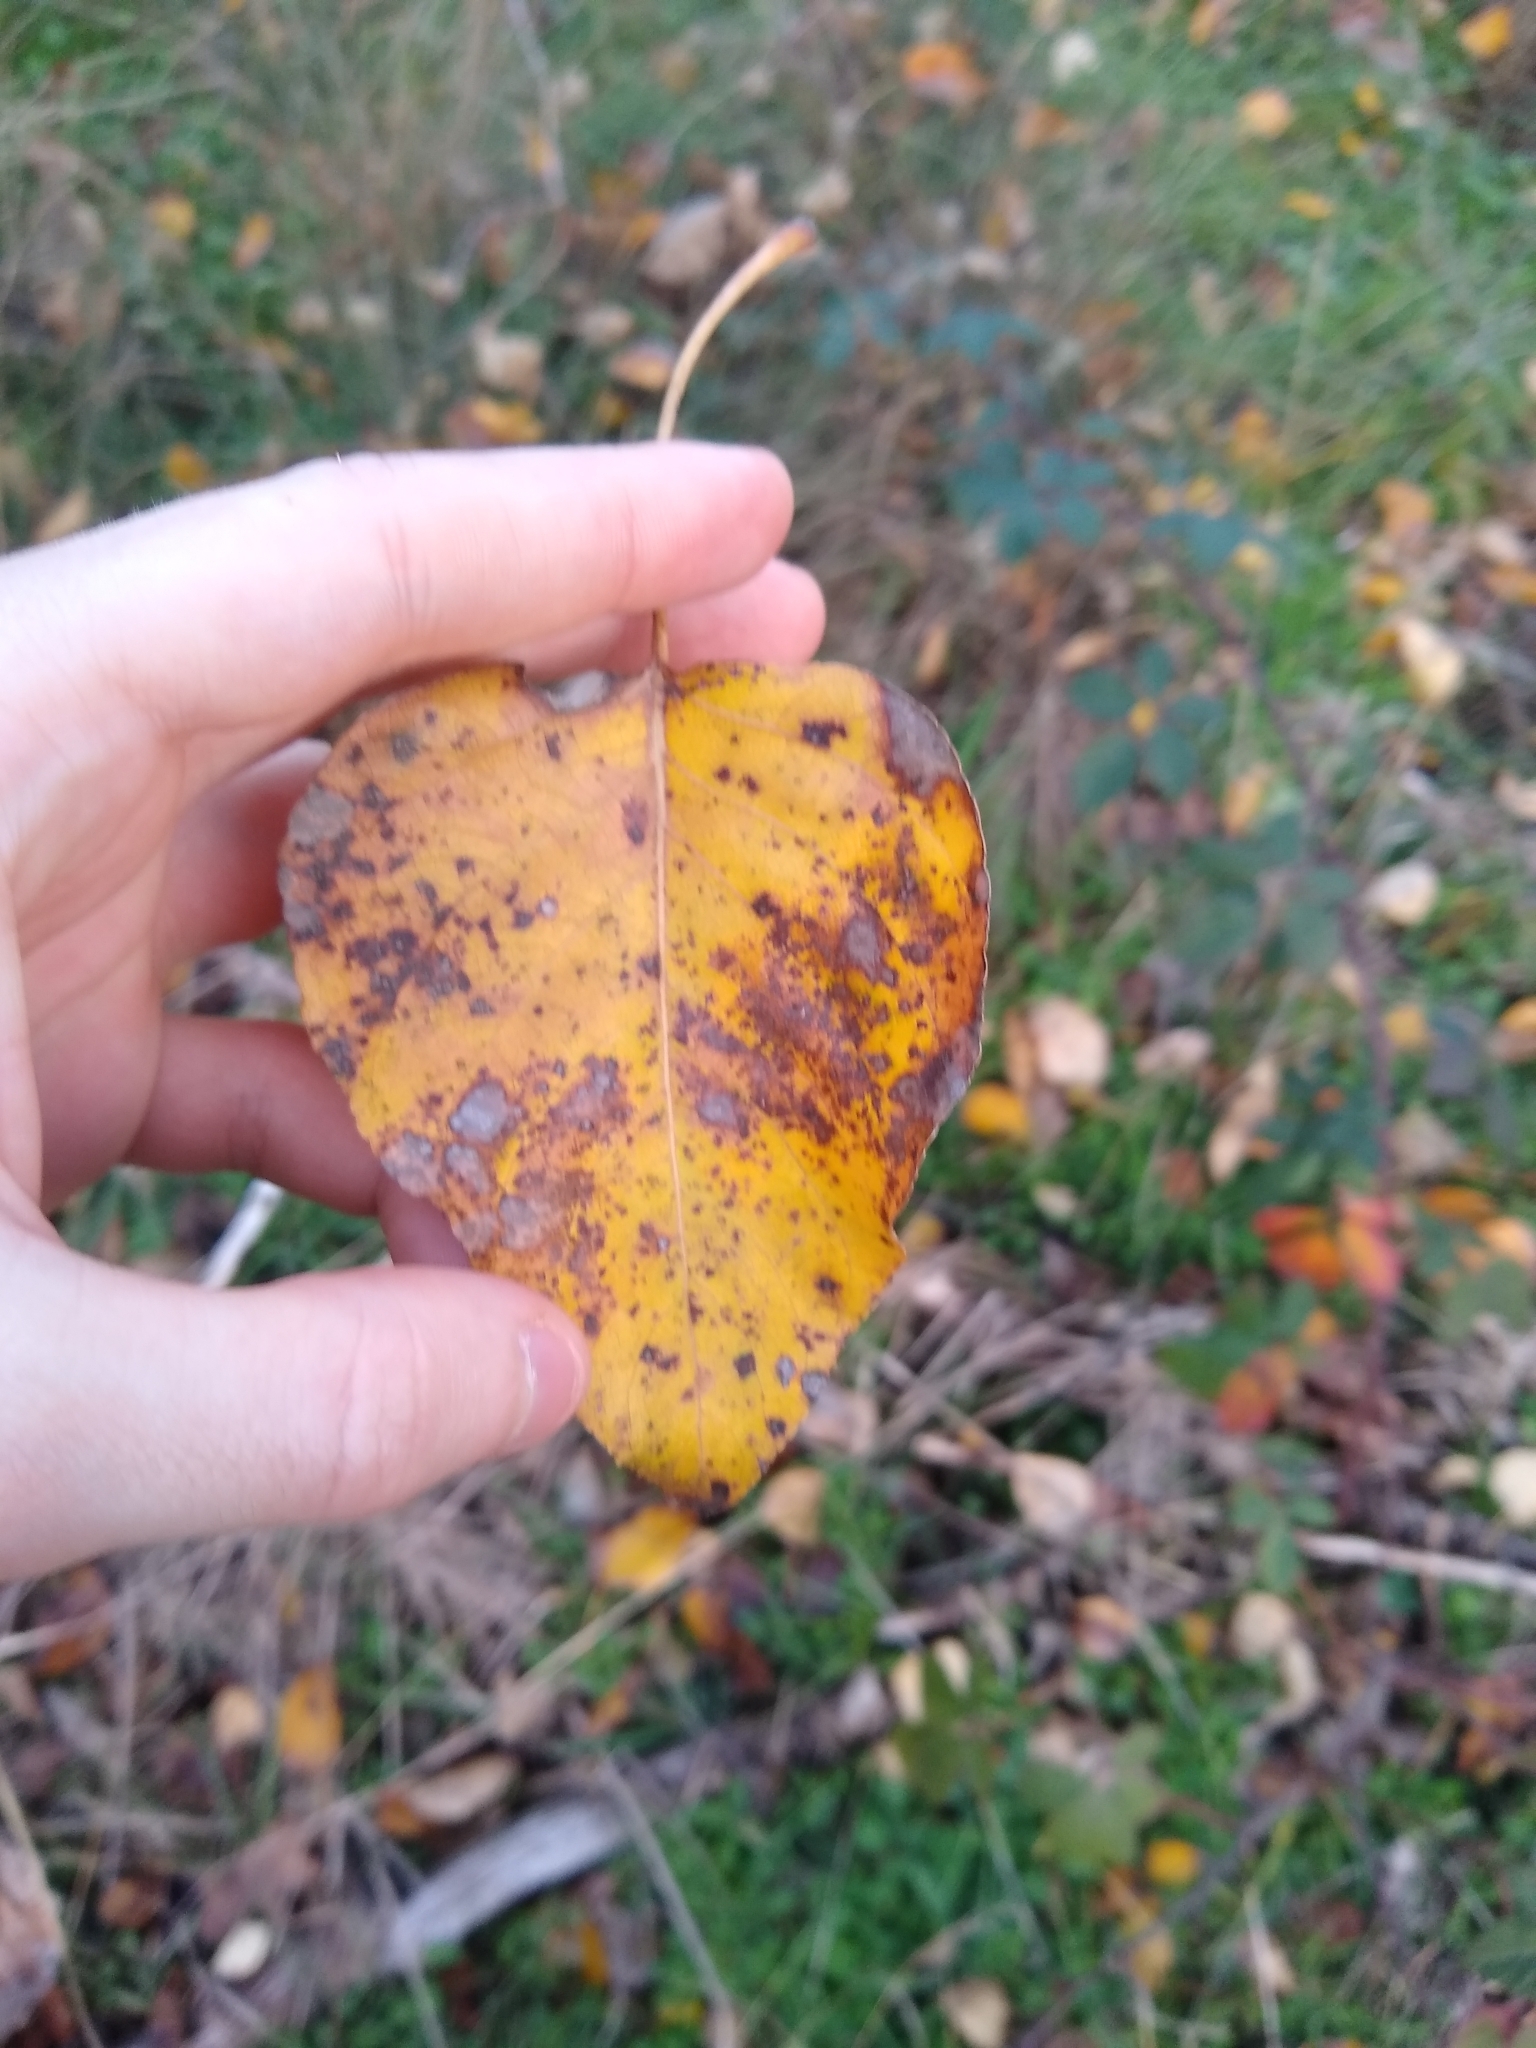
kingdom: Plantae
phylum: Tracheophyta
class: Magnoliopsida
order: Malpighiales
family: Salicaceae
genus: Populus
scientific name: Populus trichocarpa
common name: Black cottonwood
